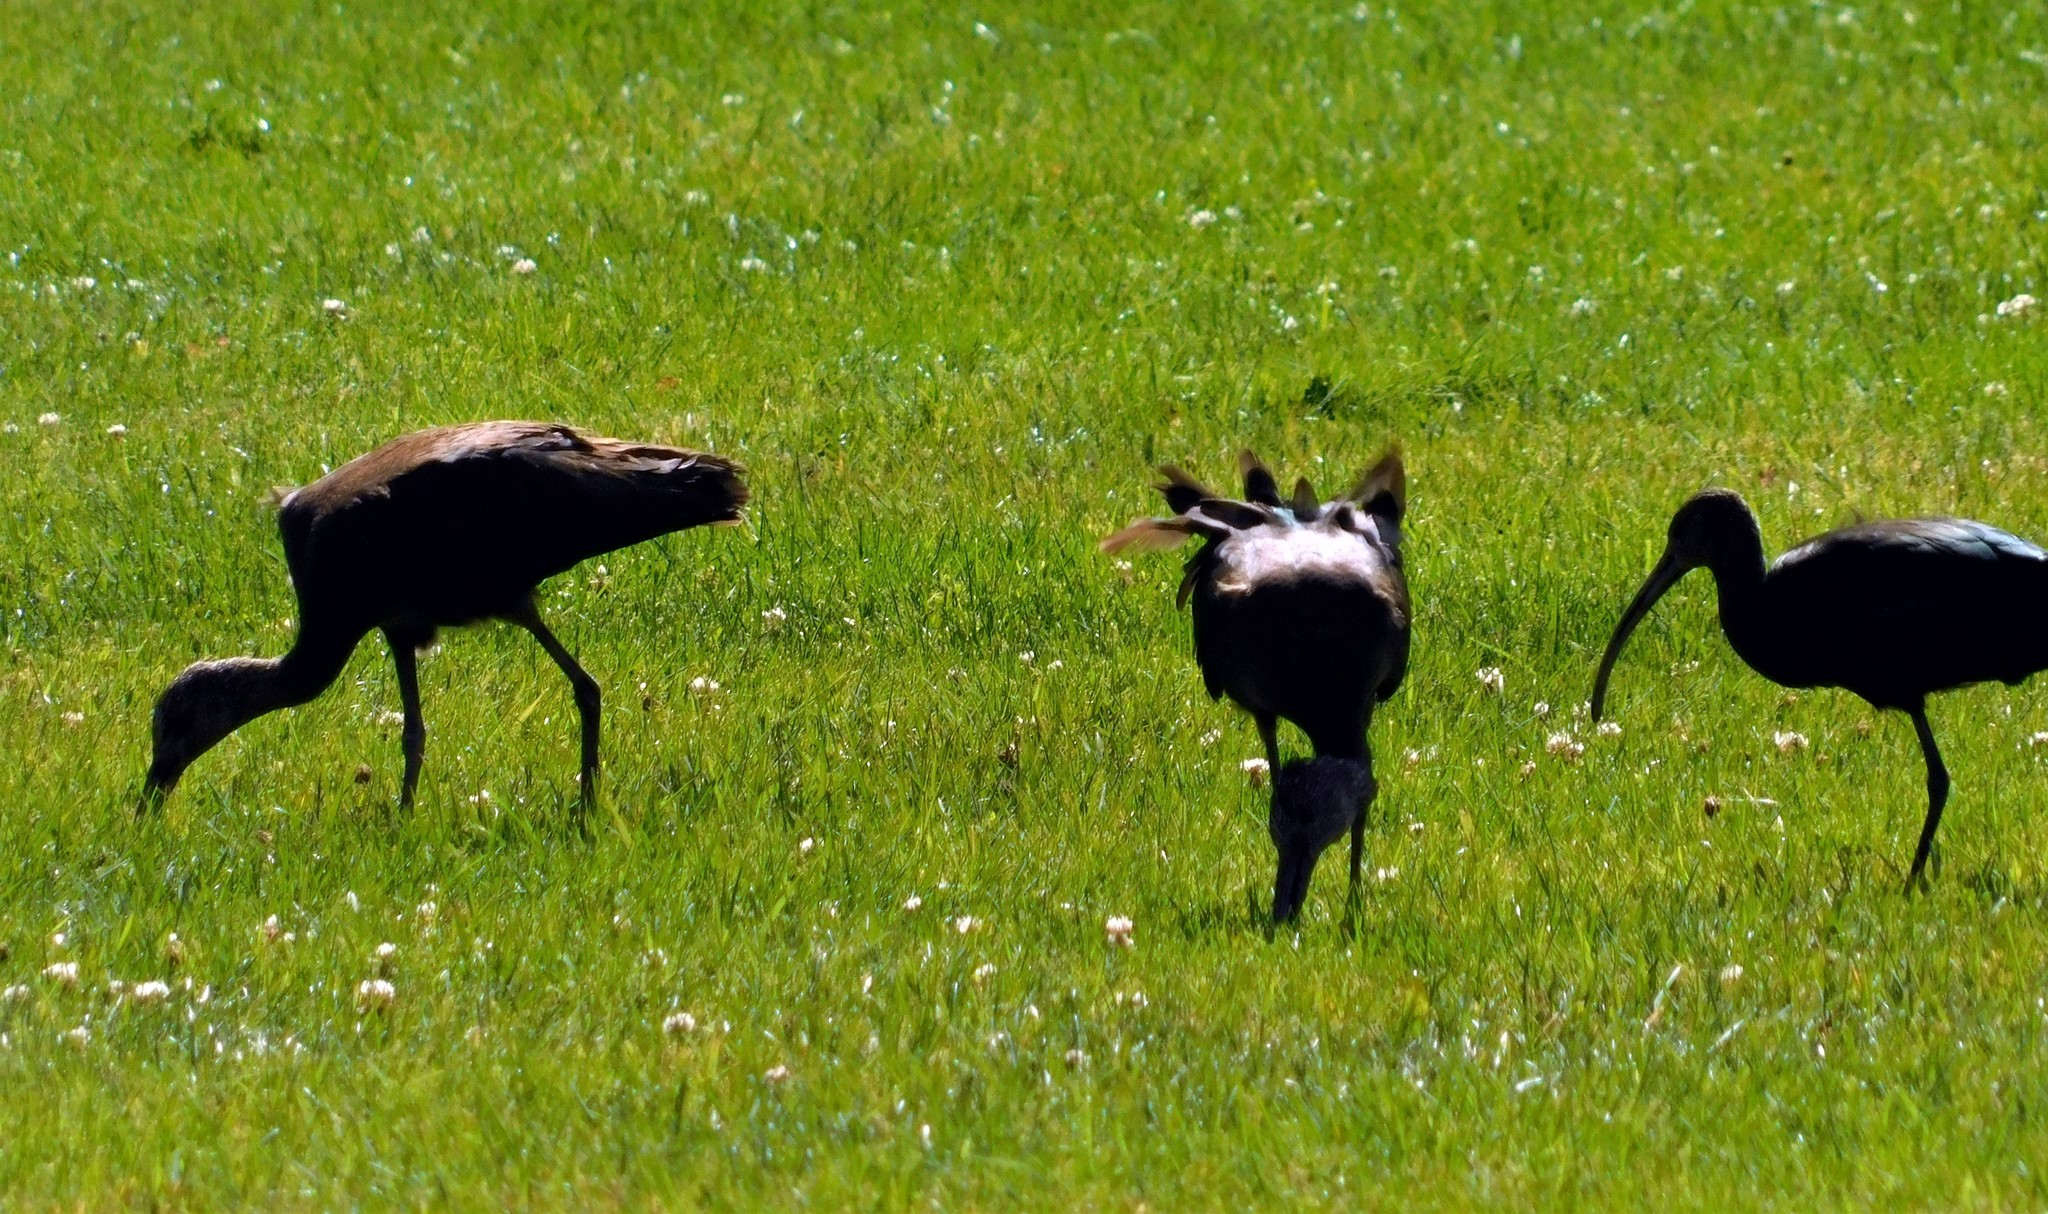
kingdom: Animalia
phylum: Chordata
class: Aves
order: Pelecaniformes
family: Threskiornithidae
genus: Plegadis
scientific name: Plegadis chihi
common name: White-faced ibis
